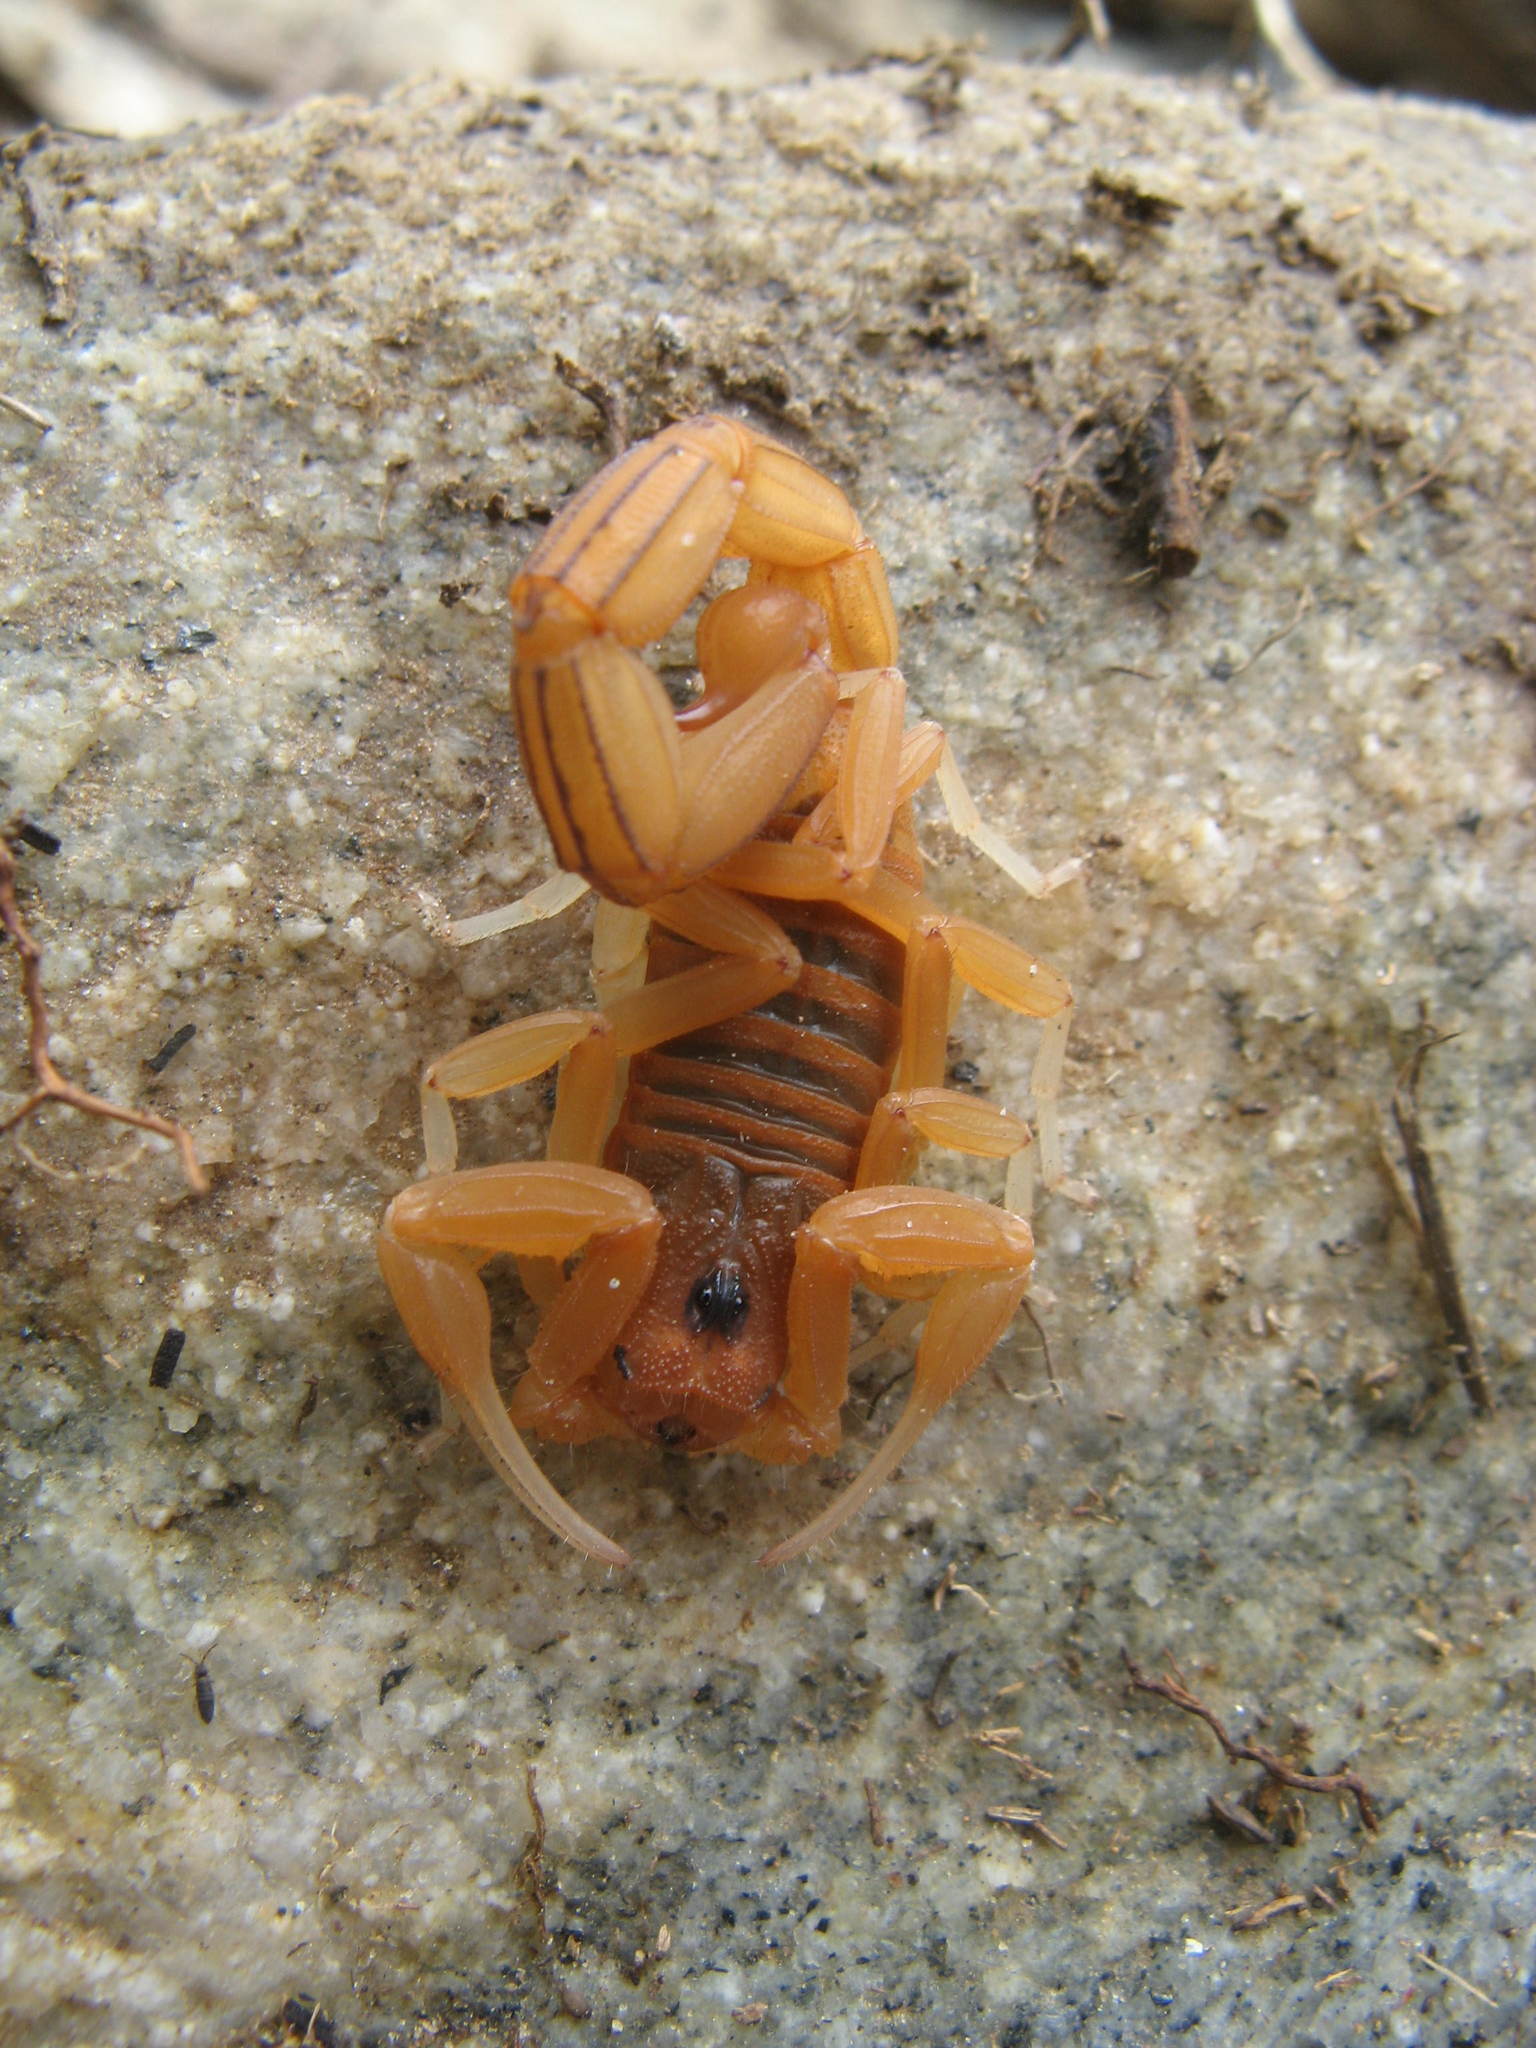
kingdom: Animalia
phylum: Arthropoda
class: Arachnida
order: Scorpiones
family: Buthidae
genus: Jaguajir
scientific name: Jaguajir rochae
